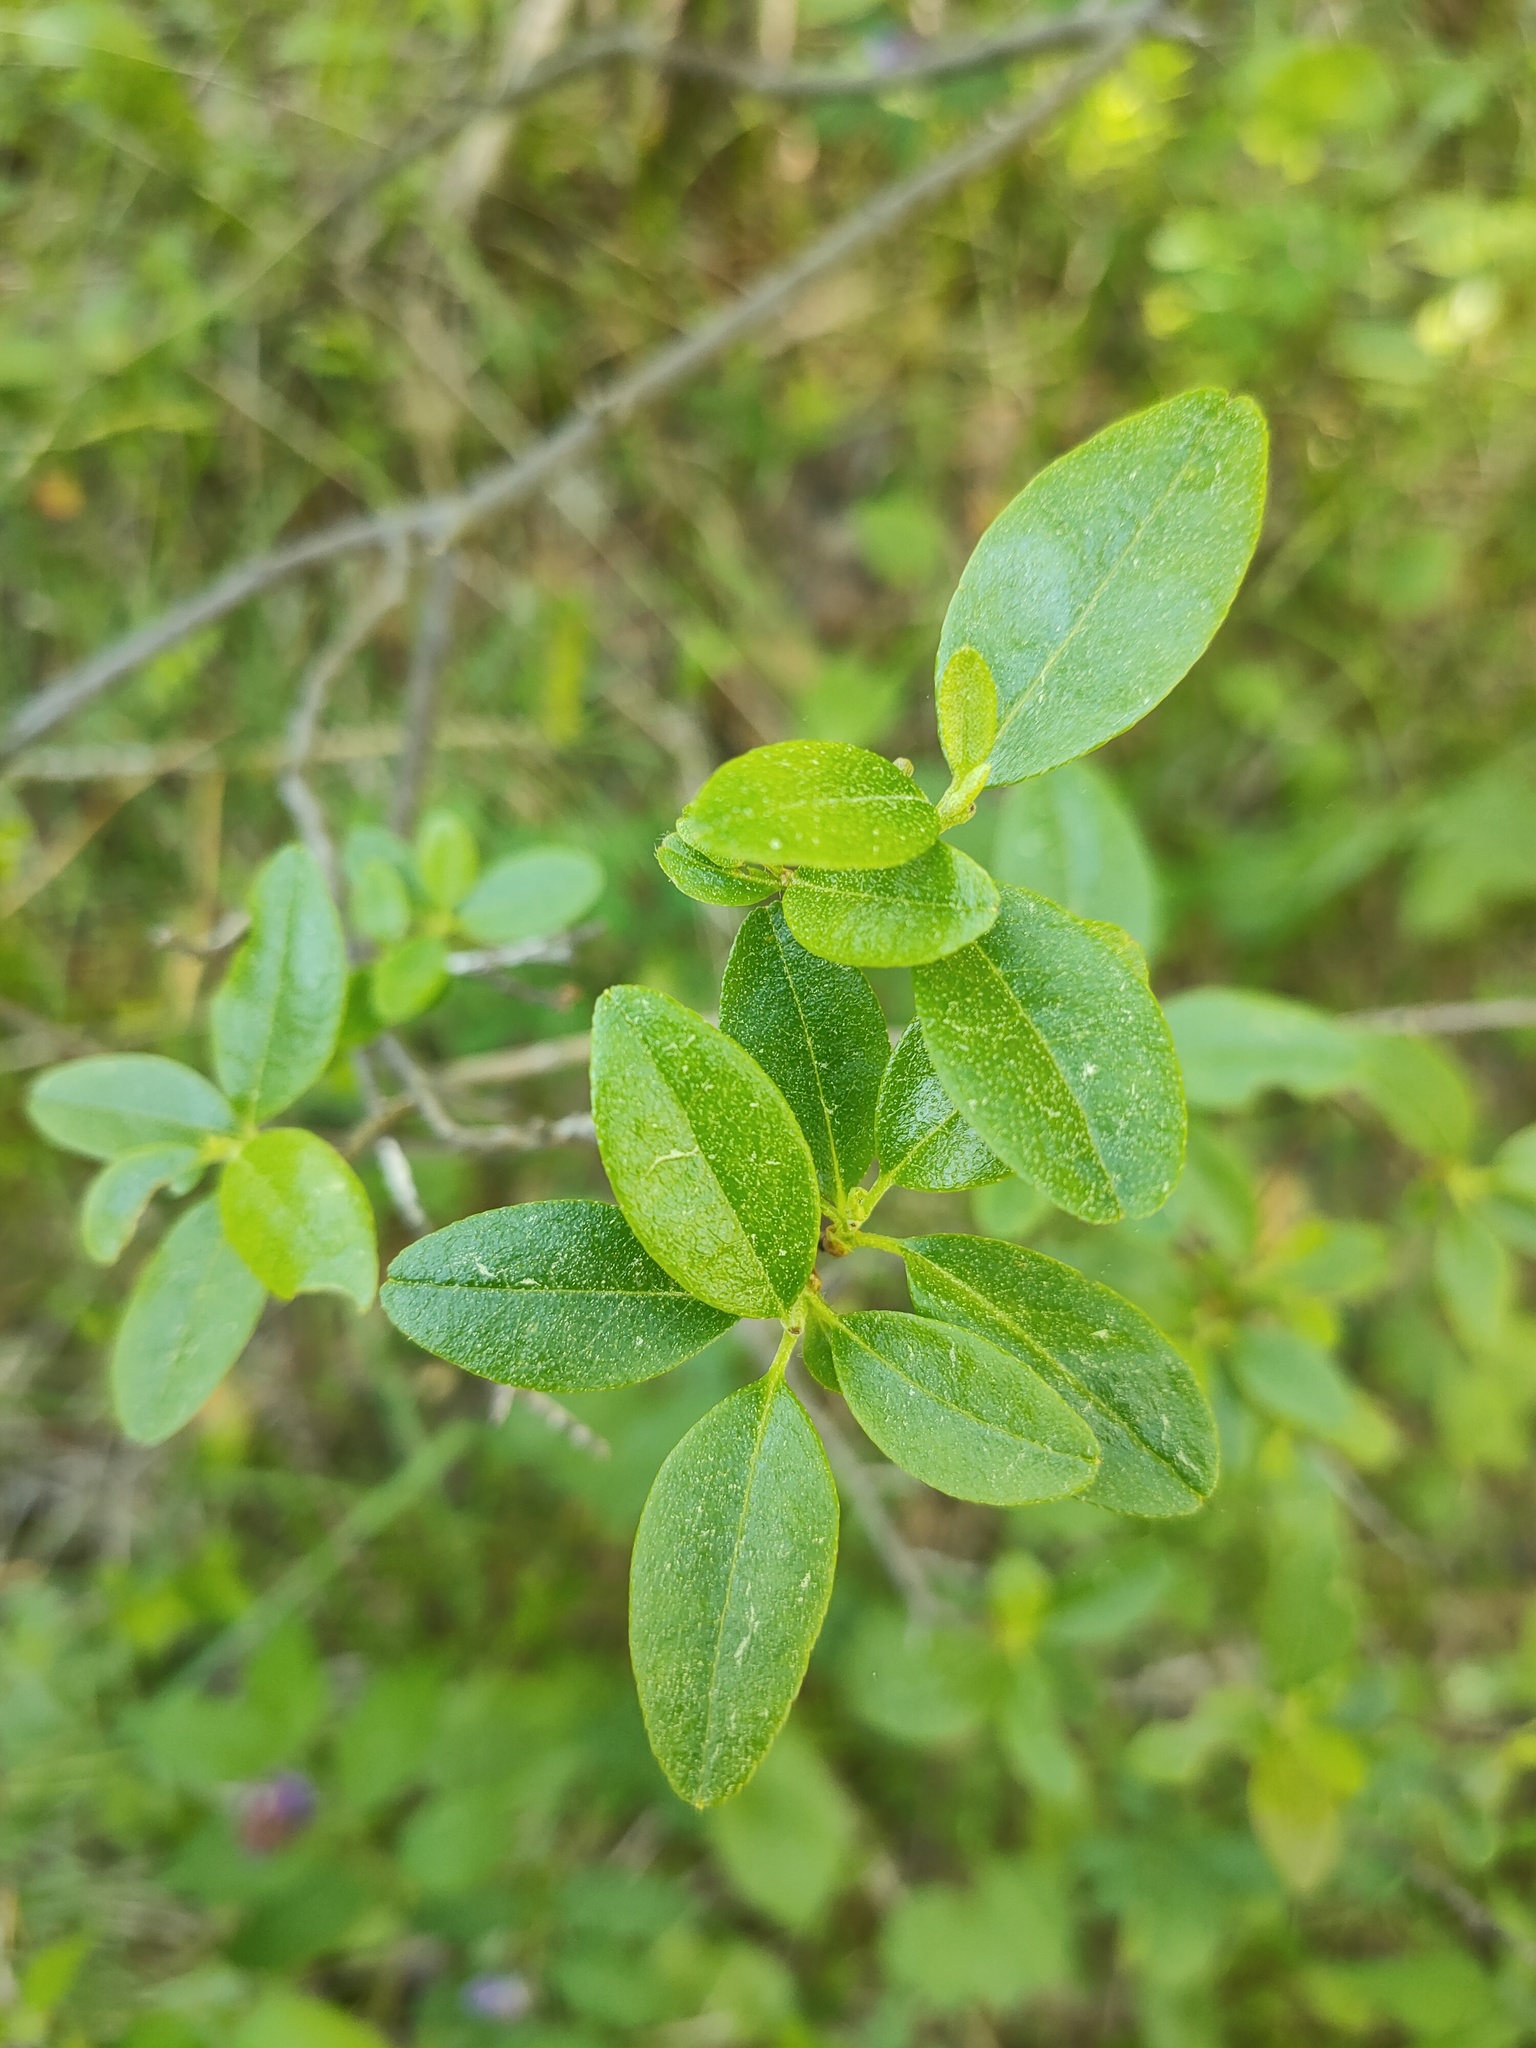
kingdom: Plantae
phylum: Tracheophyta
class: Magnoliopsida
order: Ericales
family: Ericaceae
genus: Rhododendron
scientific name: Rhododendron dauricum
